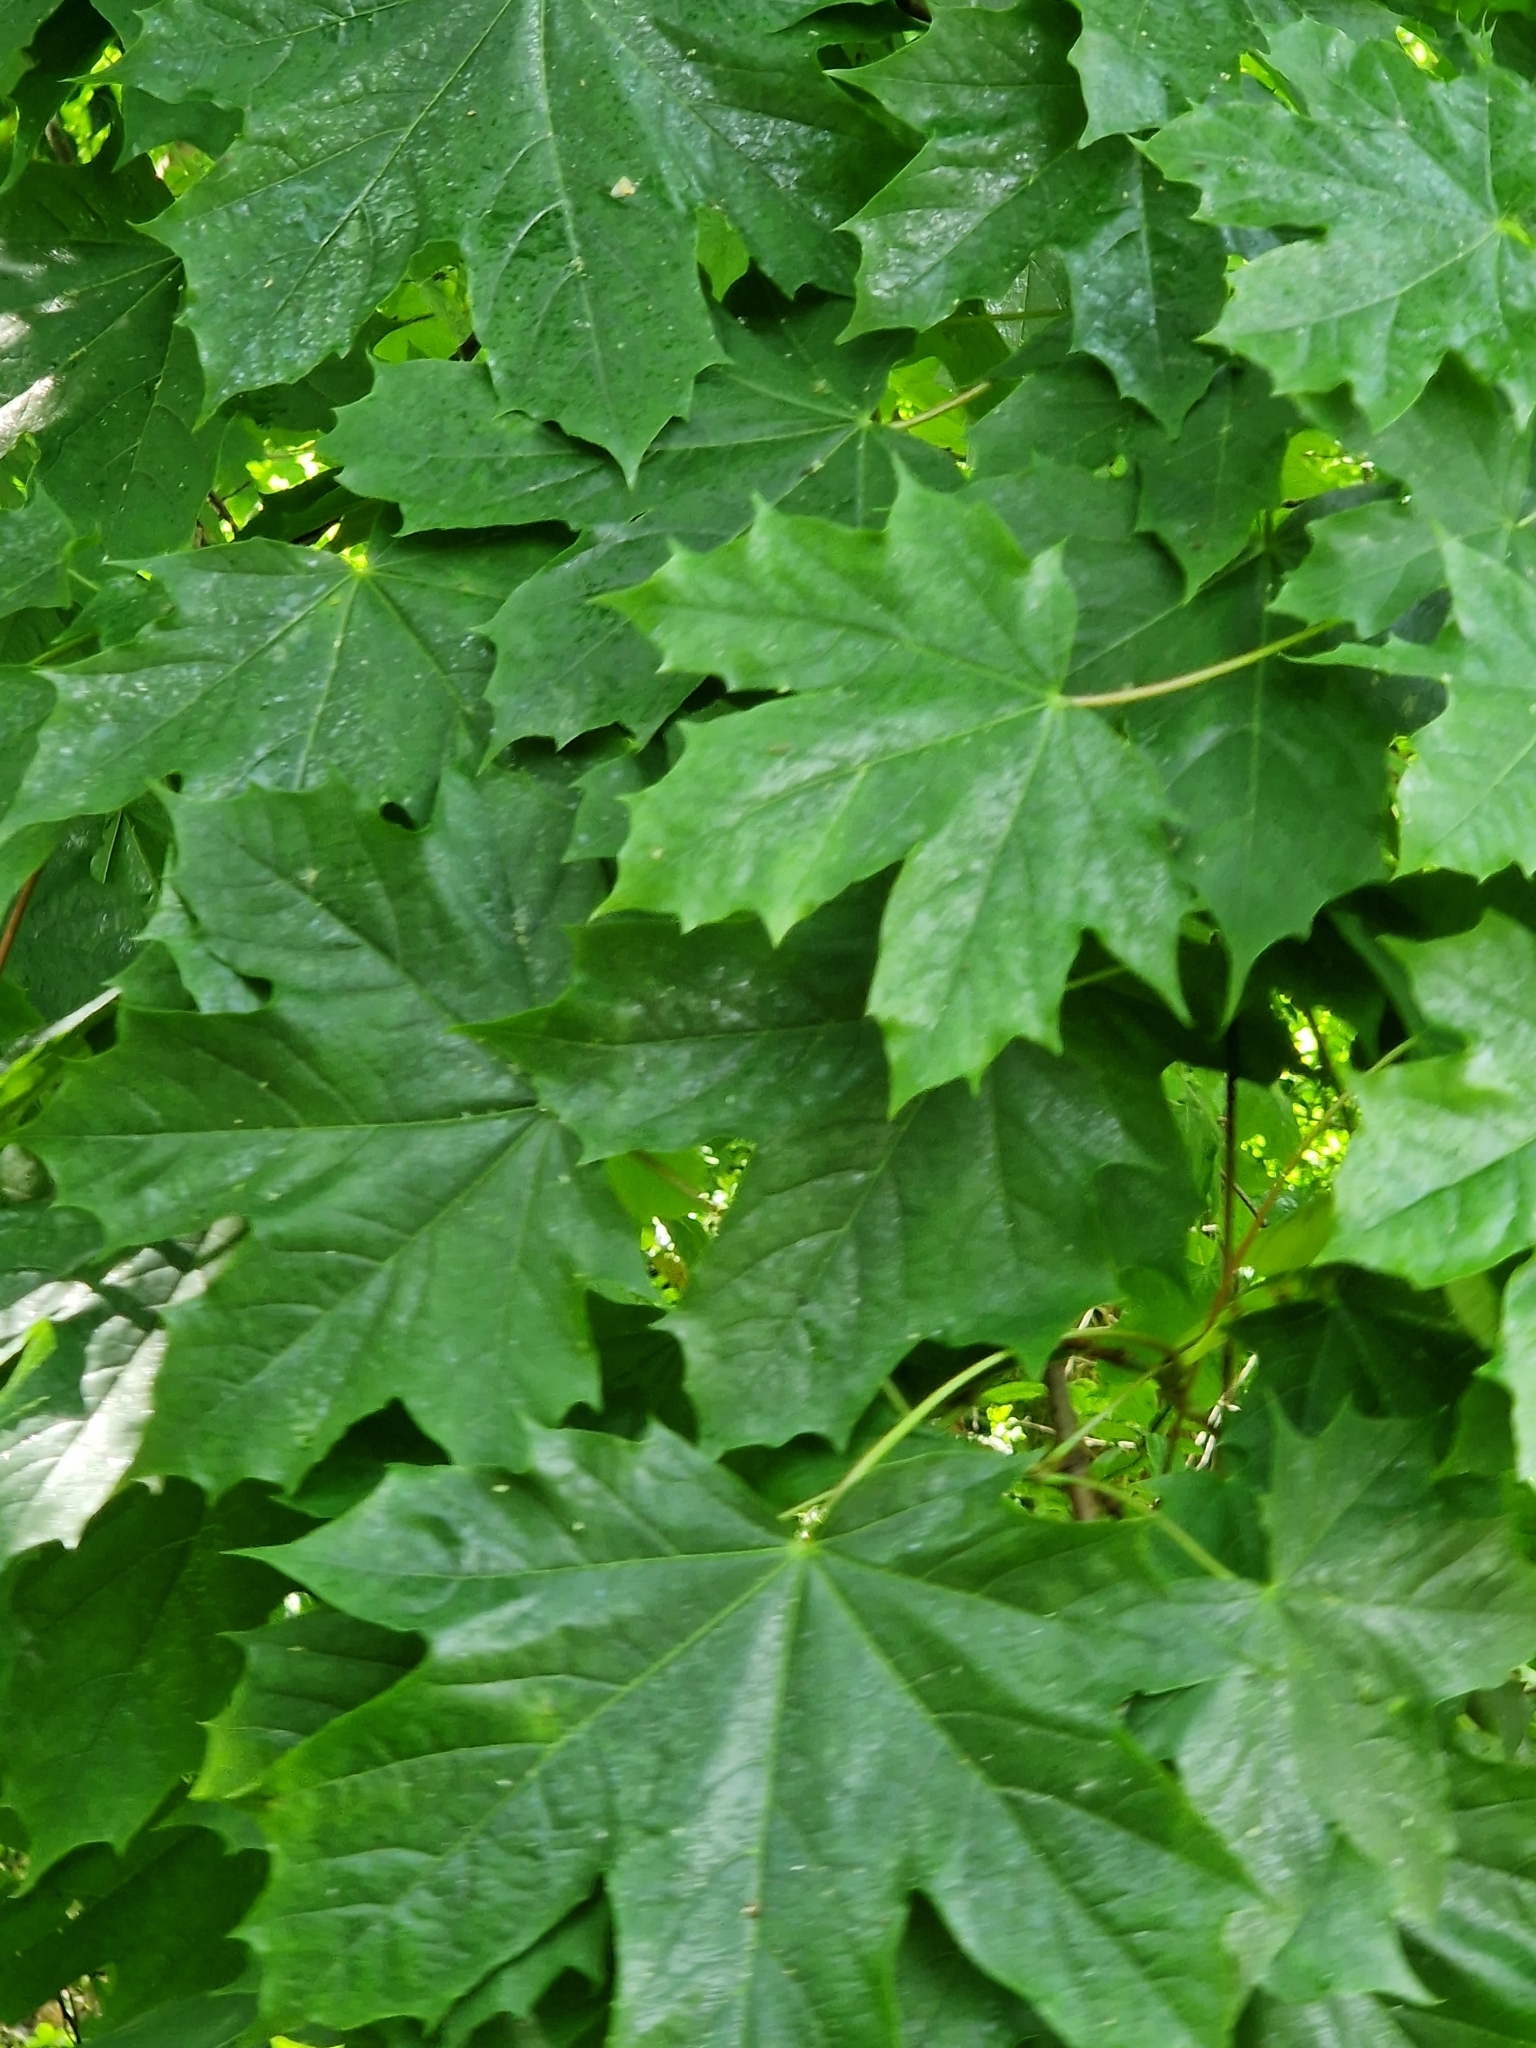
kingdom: Plantae
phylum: Tracheophyta
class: Magnoliopsida
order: Sapindales
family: Sapindaceae
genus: Acer
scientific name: Acer platanoides
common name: Norway maple
